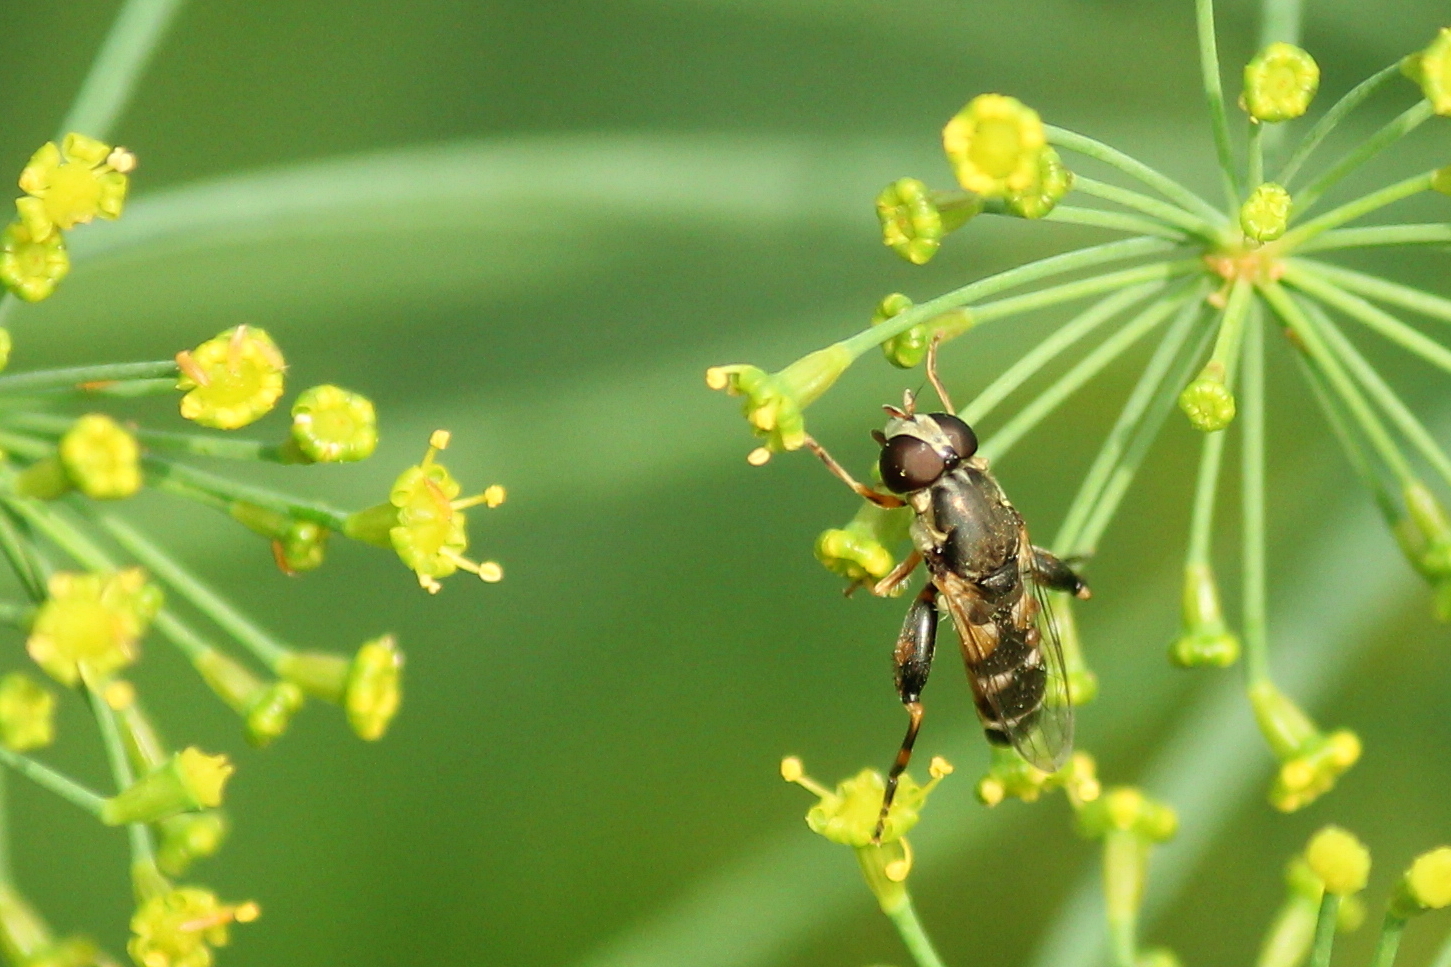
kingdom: Animalia
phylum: Arthropoda
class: Insecta
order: Diptera
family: Syrphidae
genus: Syritta
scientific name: Syritta pipiens
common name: Hover fly
